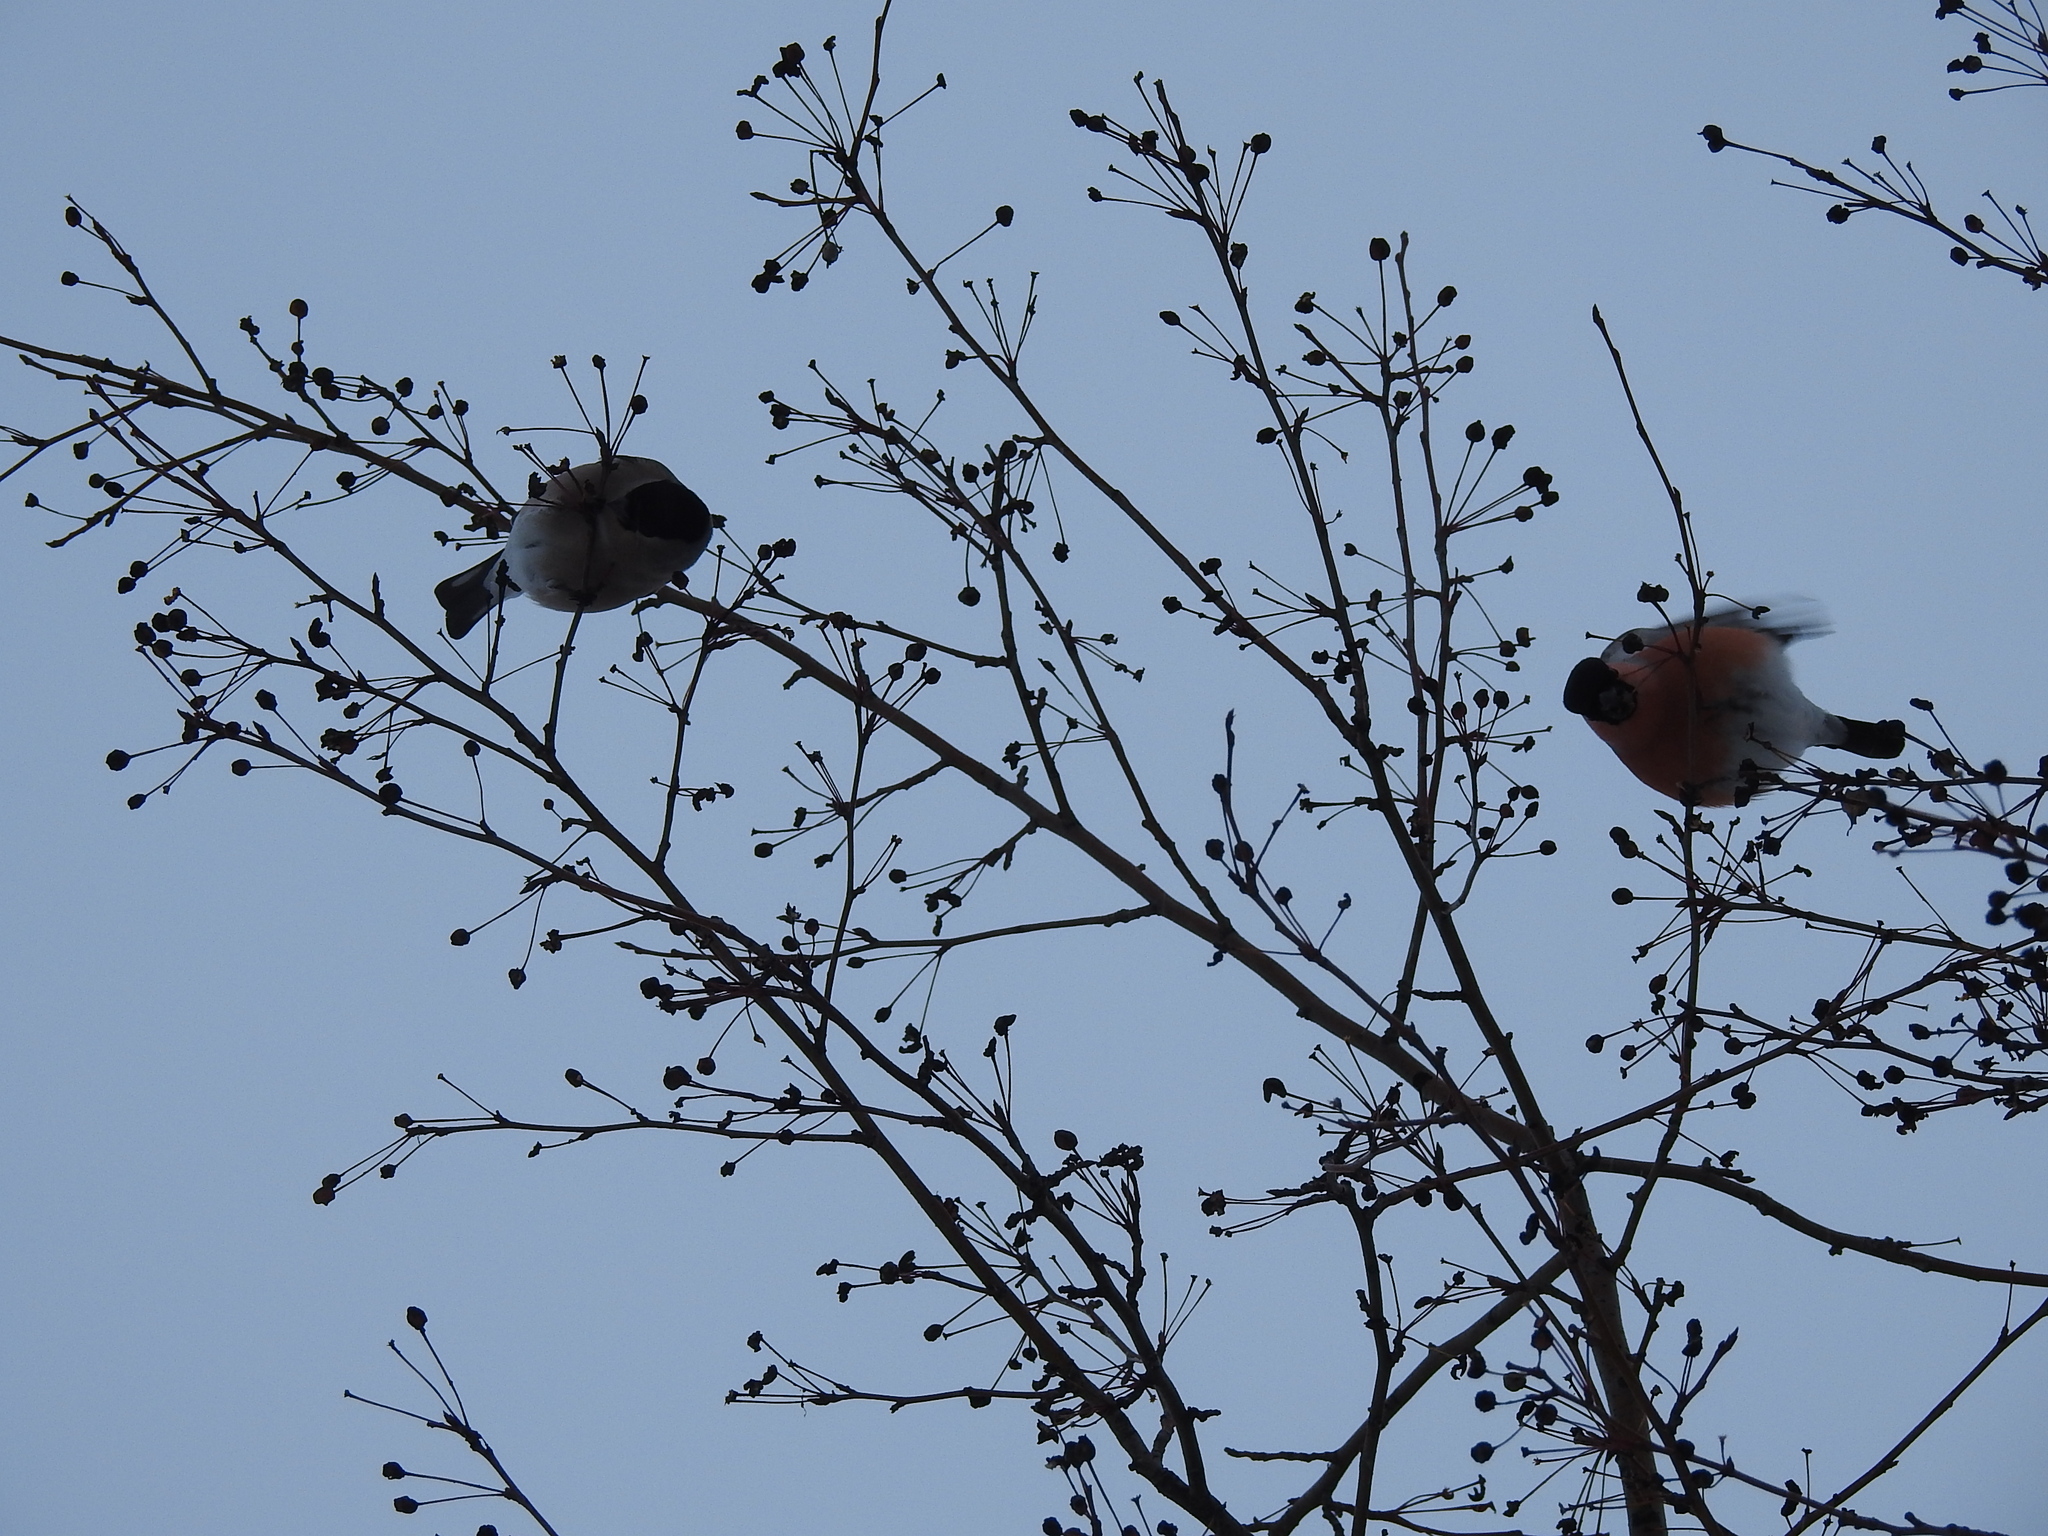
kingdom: Animalia
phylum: Chordata
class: Aves
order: Passeriformes
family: Fringillidae
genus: Pyrrhula
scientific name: Pyrrhula pyrrhula
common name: Eurasian bullfinch
